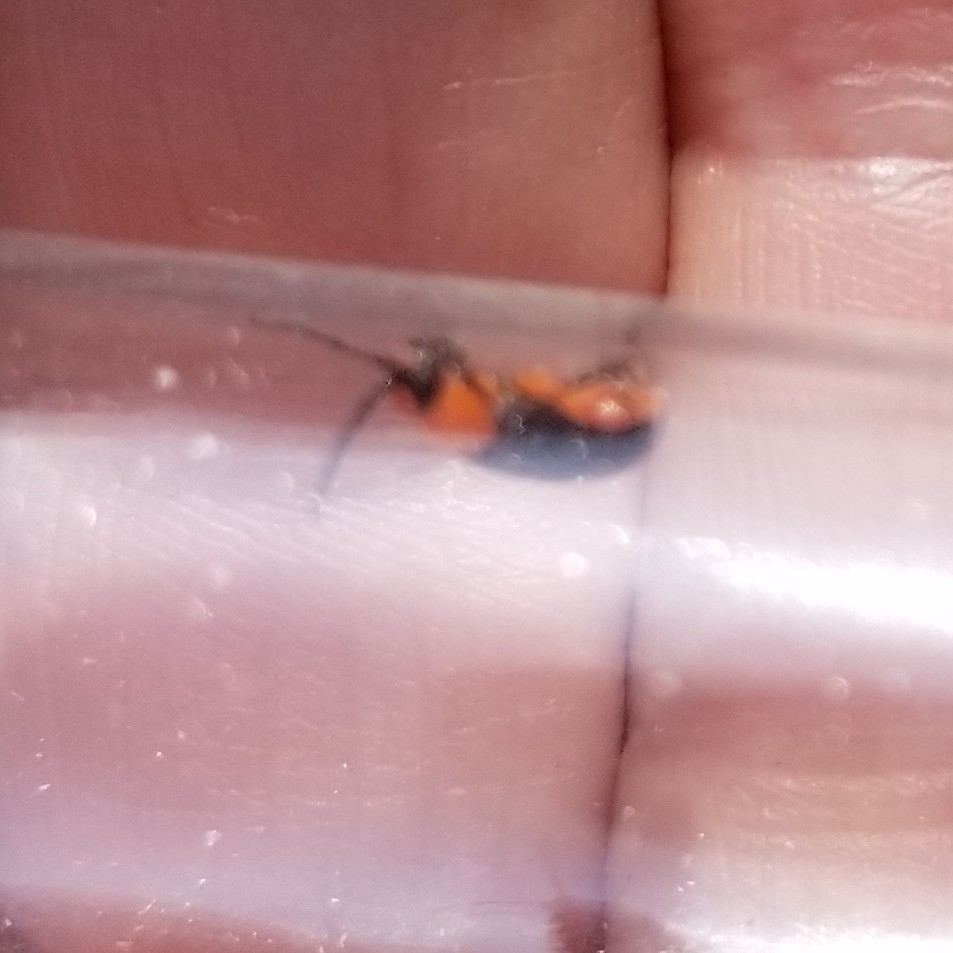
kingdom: Animalia
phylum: Arthropoda
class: Insecta
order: Coleoptera
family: Chrysomelidae
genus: Asphaera
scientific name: Asphaera lustrans
